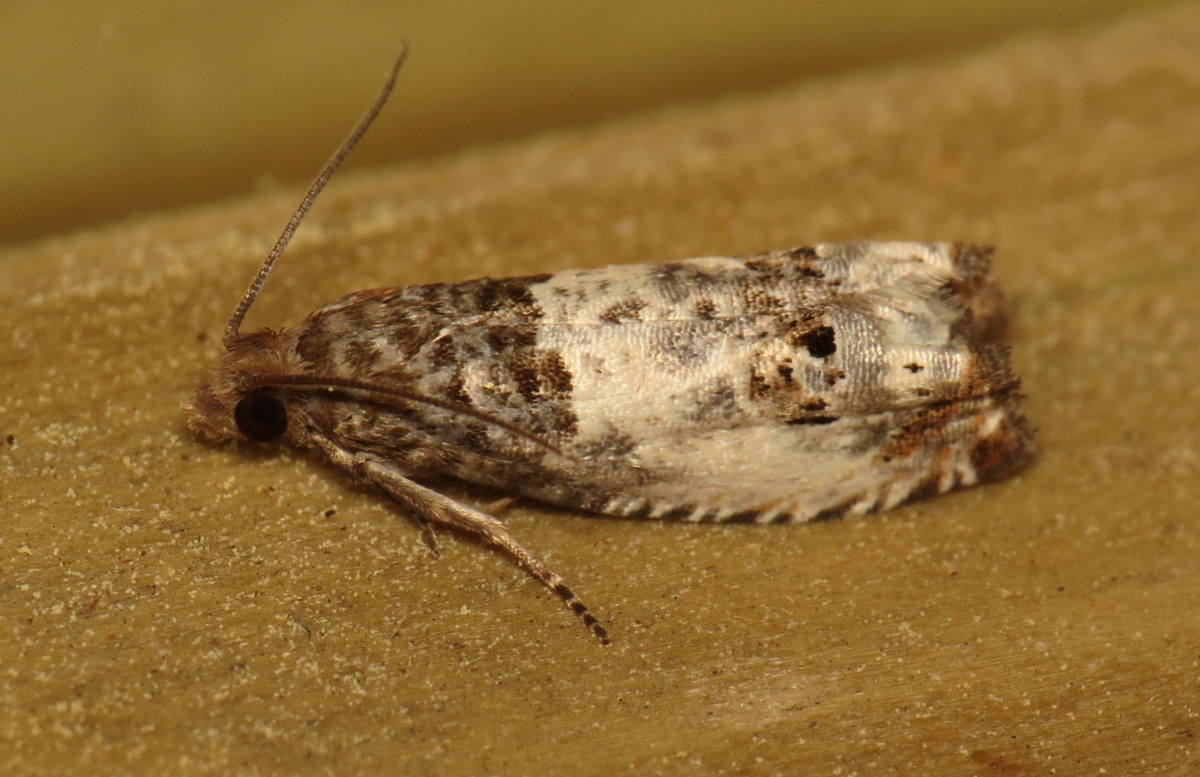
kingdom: Animalia
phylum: Arthropoda
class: Insecta
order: Lepidoptera
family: Tortricidae
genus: Notocelia
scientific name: Notocelia rosaecolana
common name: Common rose bell
